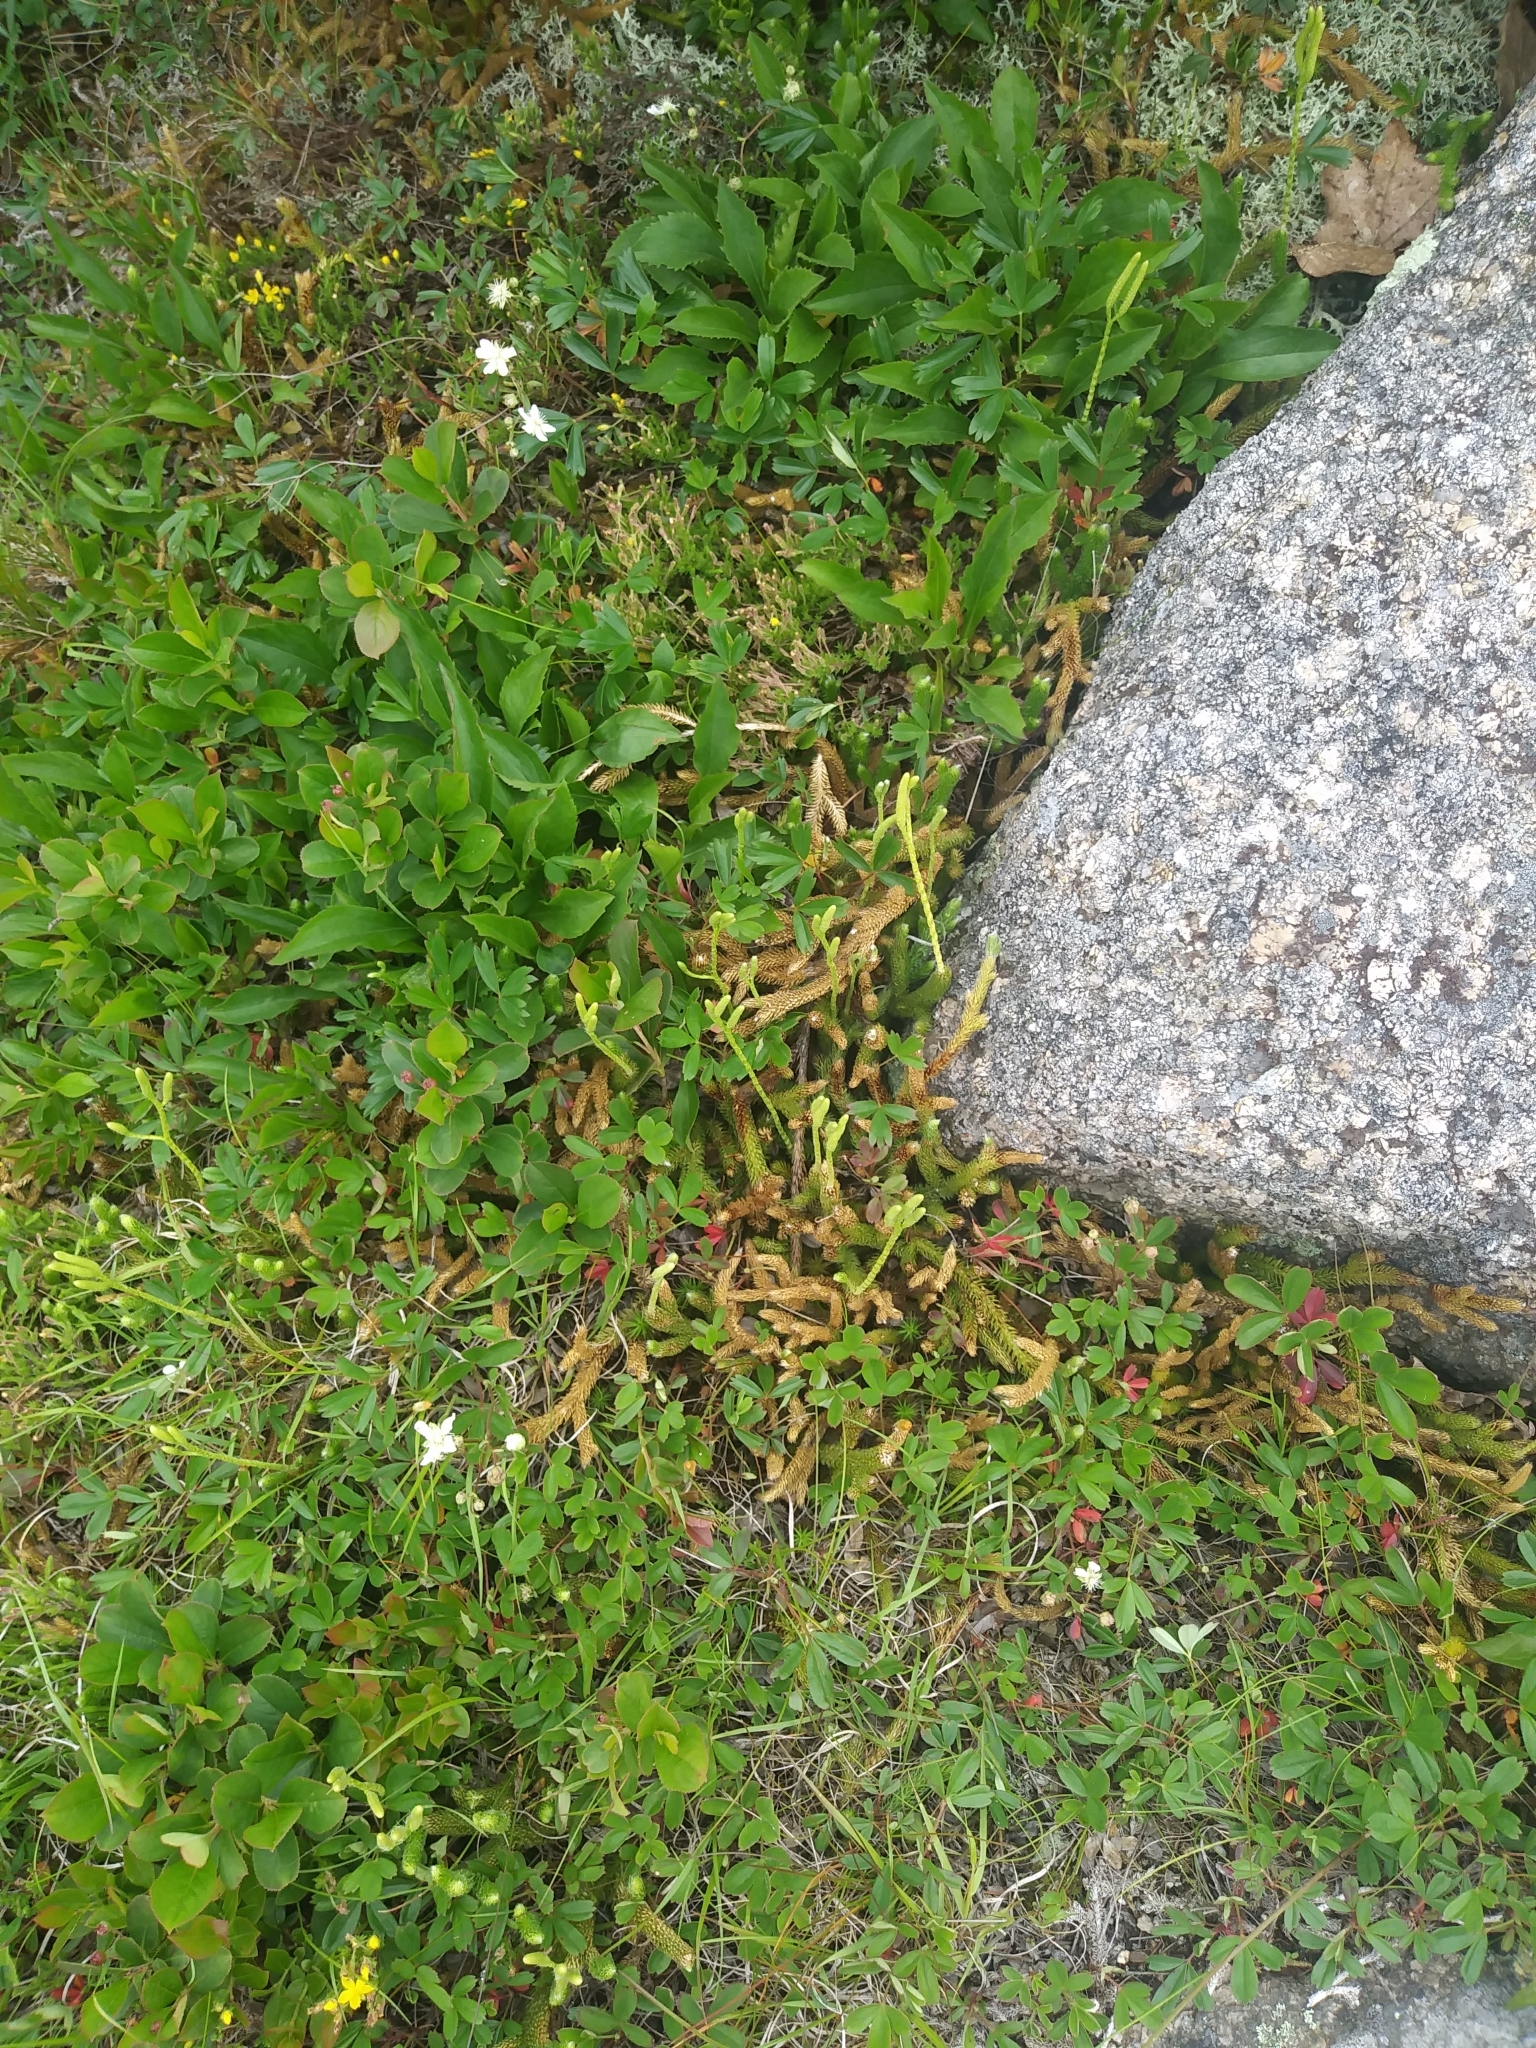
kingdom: Plantae
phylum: Tracheophyta
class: Lycopodiopsida
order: Lycopodiales
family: Lycopodiaceae
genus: Lycopodium
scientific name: Lycopodium clavatum
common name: Stag's-horn clubmoss
